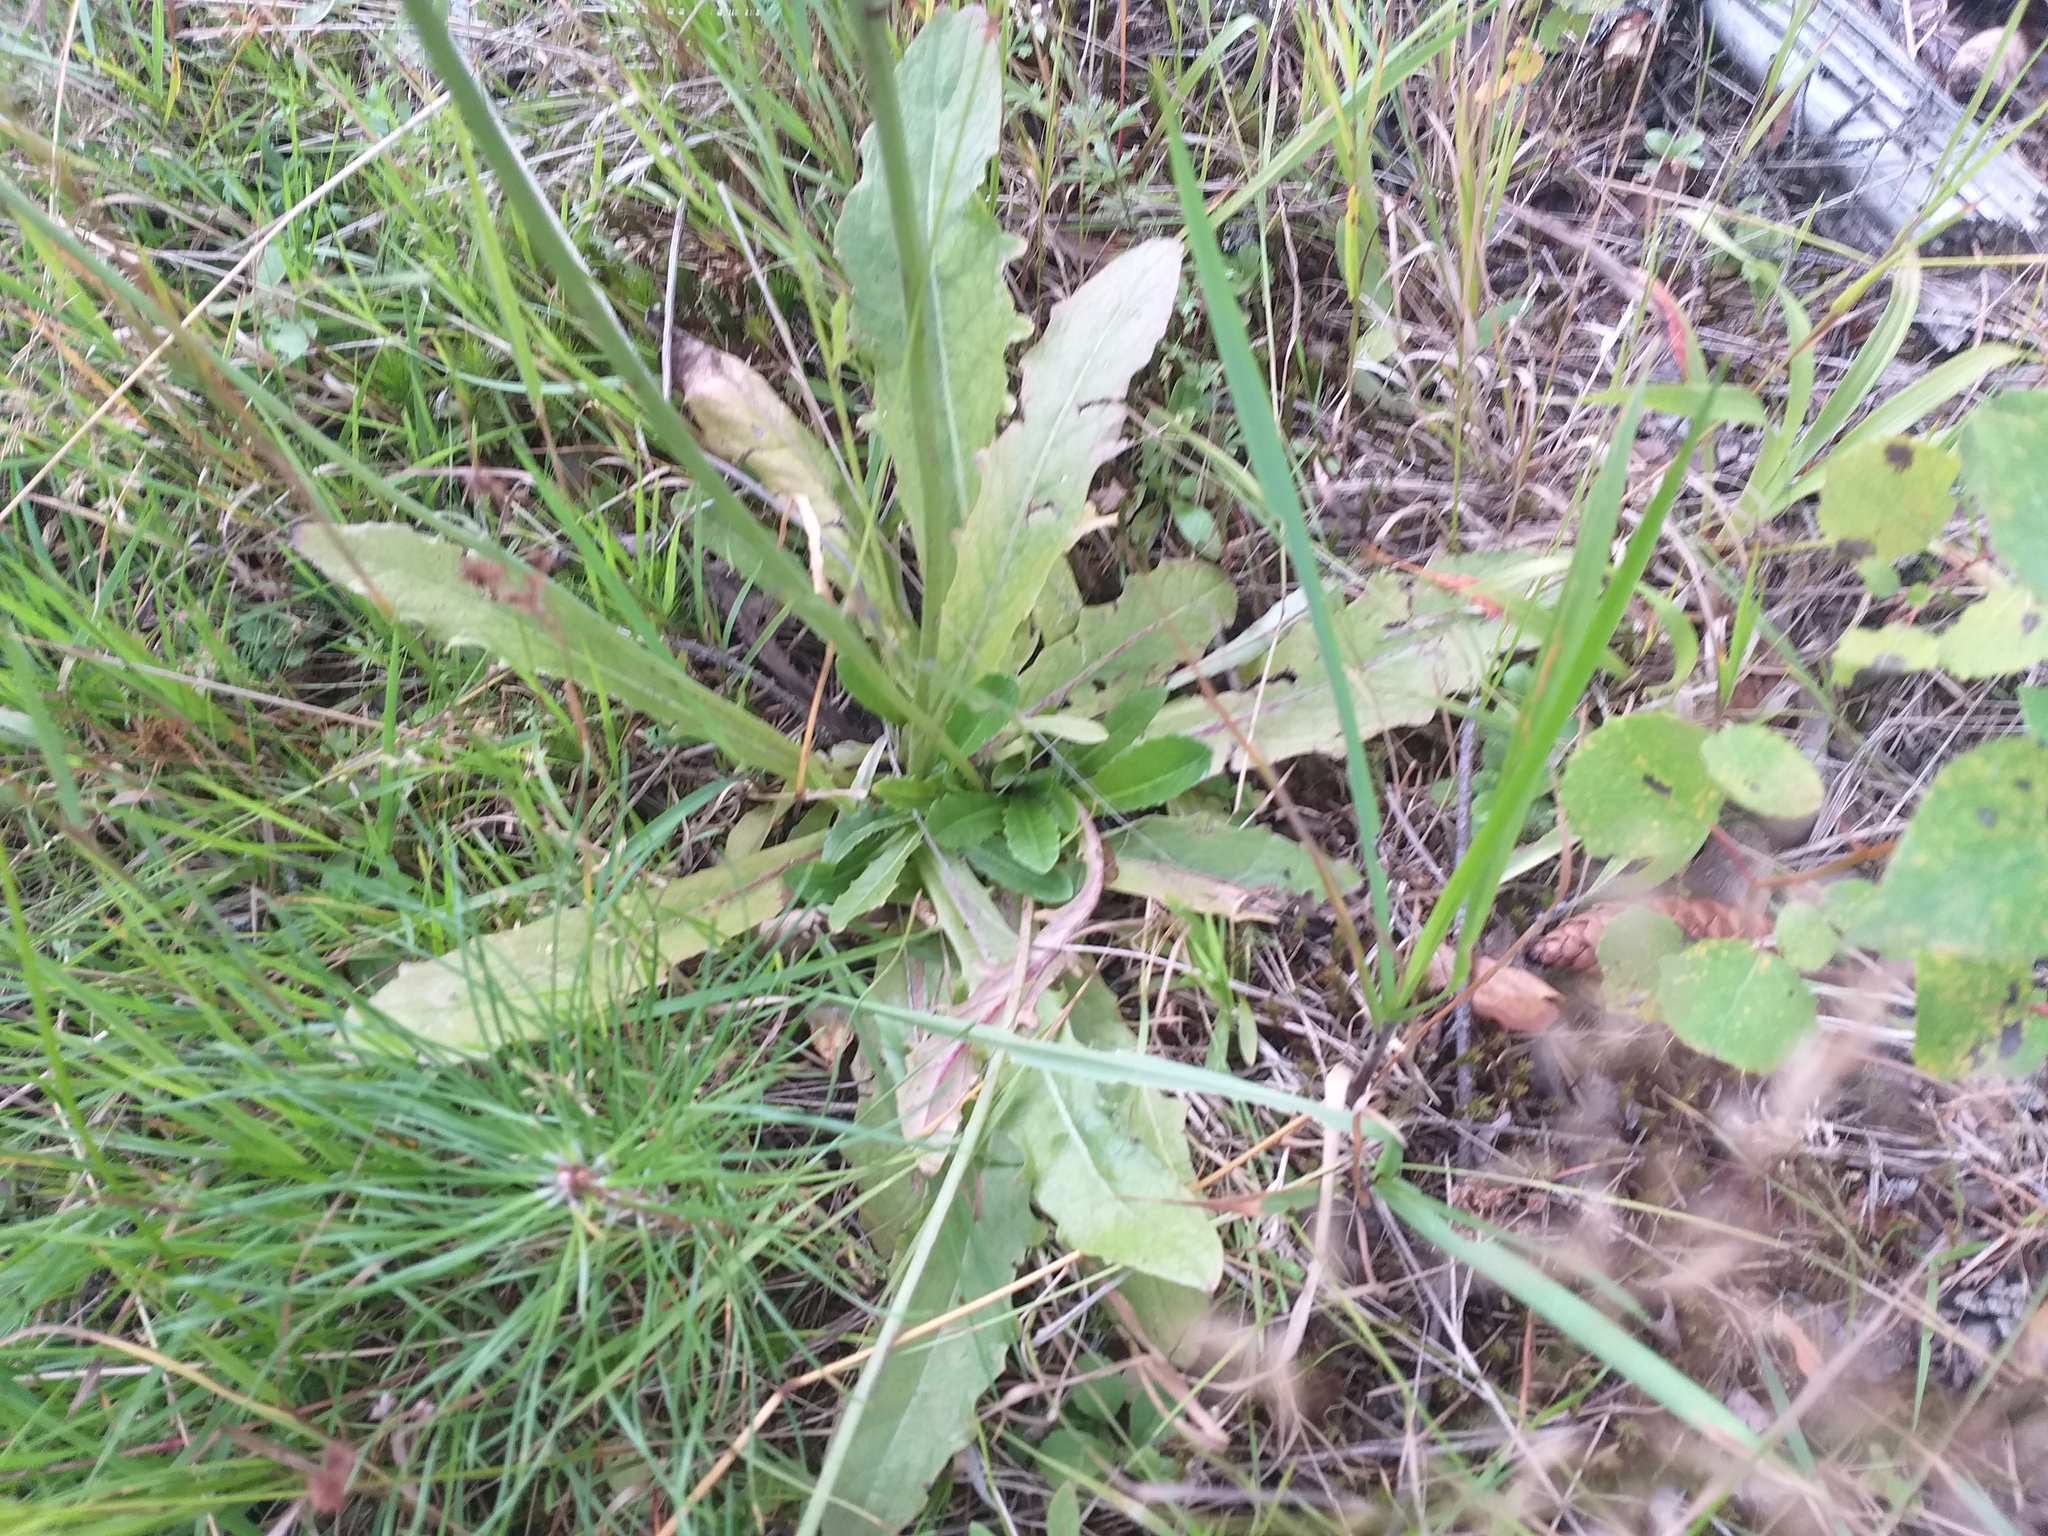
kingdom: Plantae
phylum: Tracheophyta
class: Magnoliopsida
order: Asterales
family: Asteraceae
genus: Hypochaeris
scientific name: Hypochaeris radicata
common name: Flatweed
